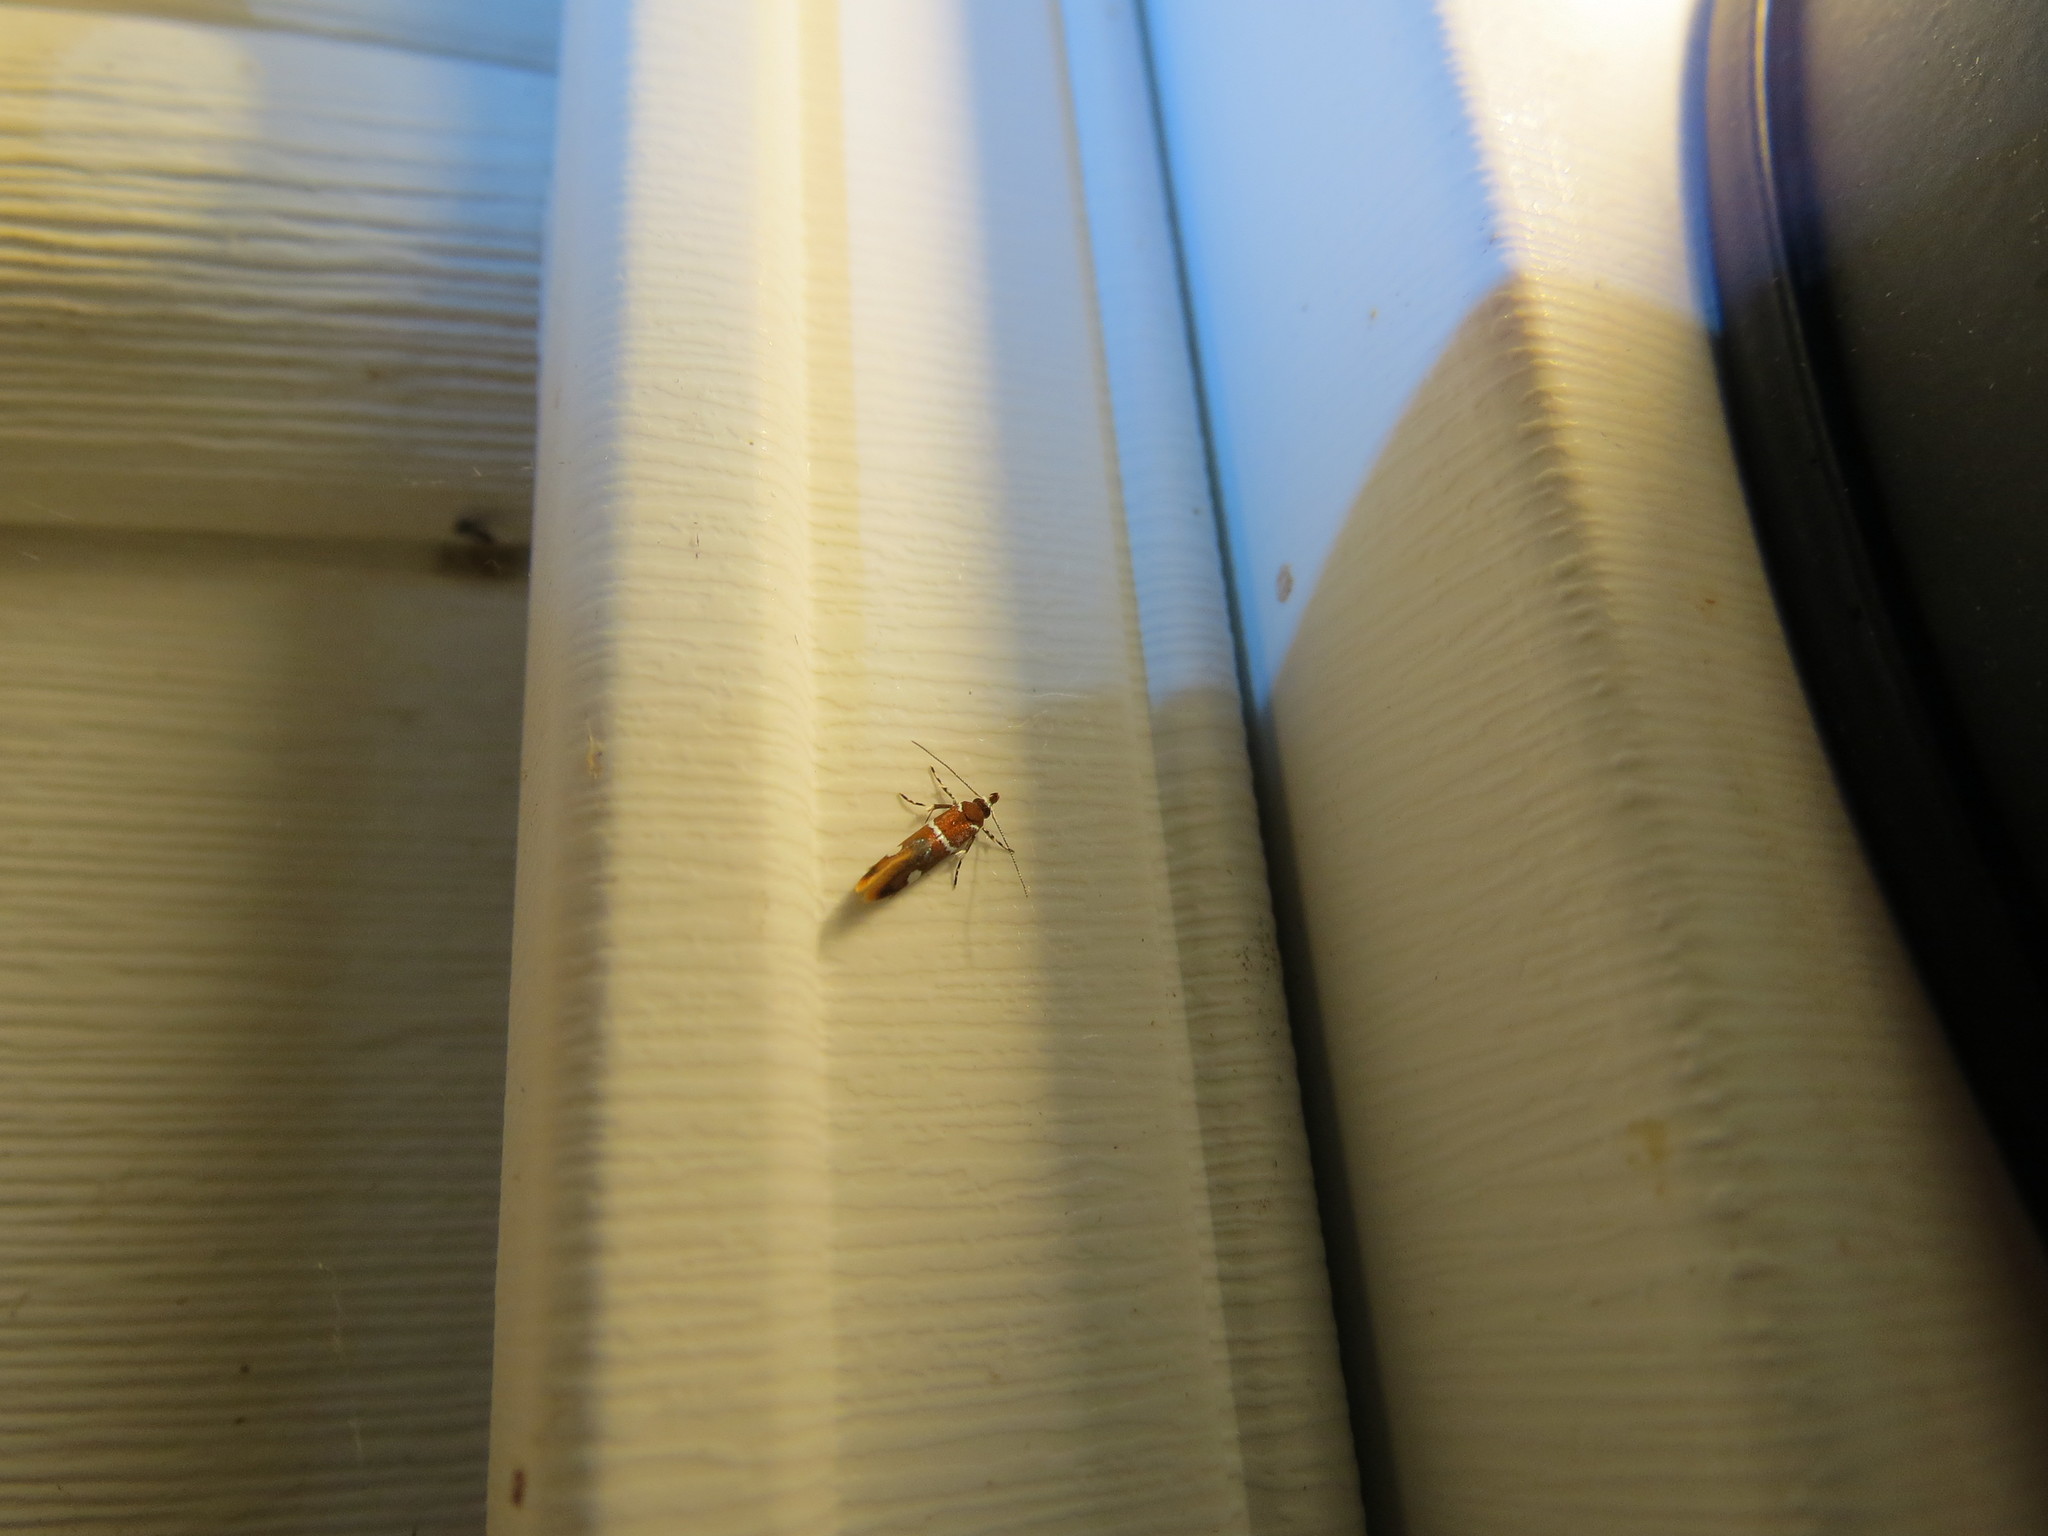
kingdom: Animalia
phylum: Arthropoda
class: Insecta
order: Lepidoptera
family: Oecophoridae
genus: Promalactis
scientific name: Promalactis suzukiella
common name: Moth
